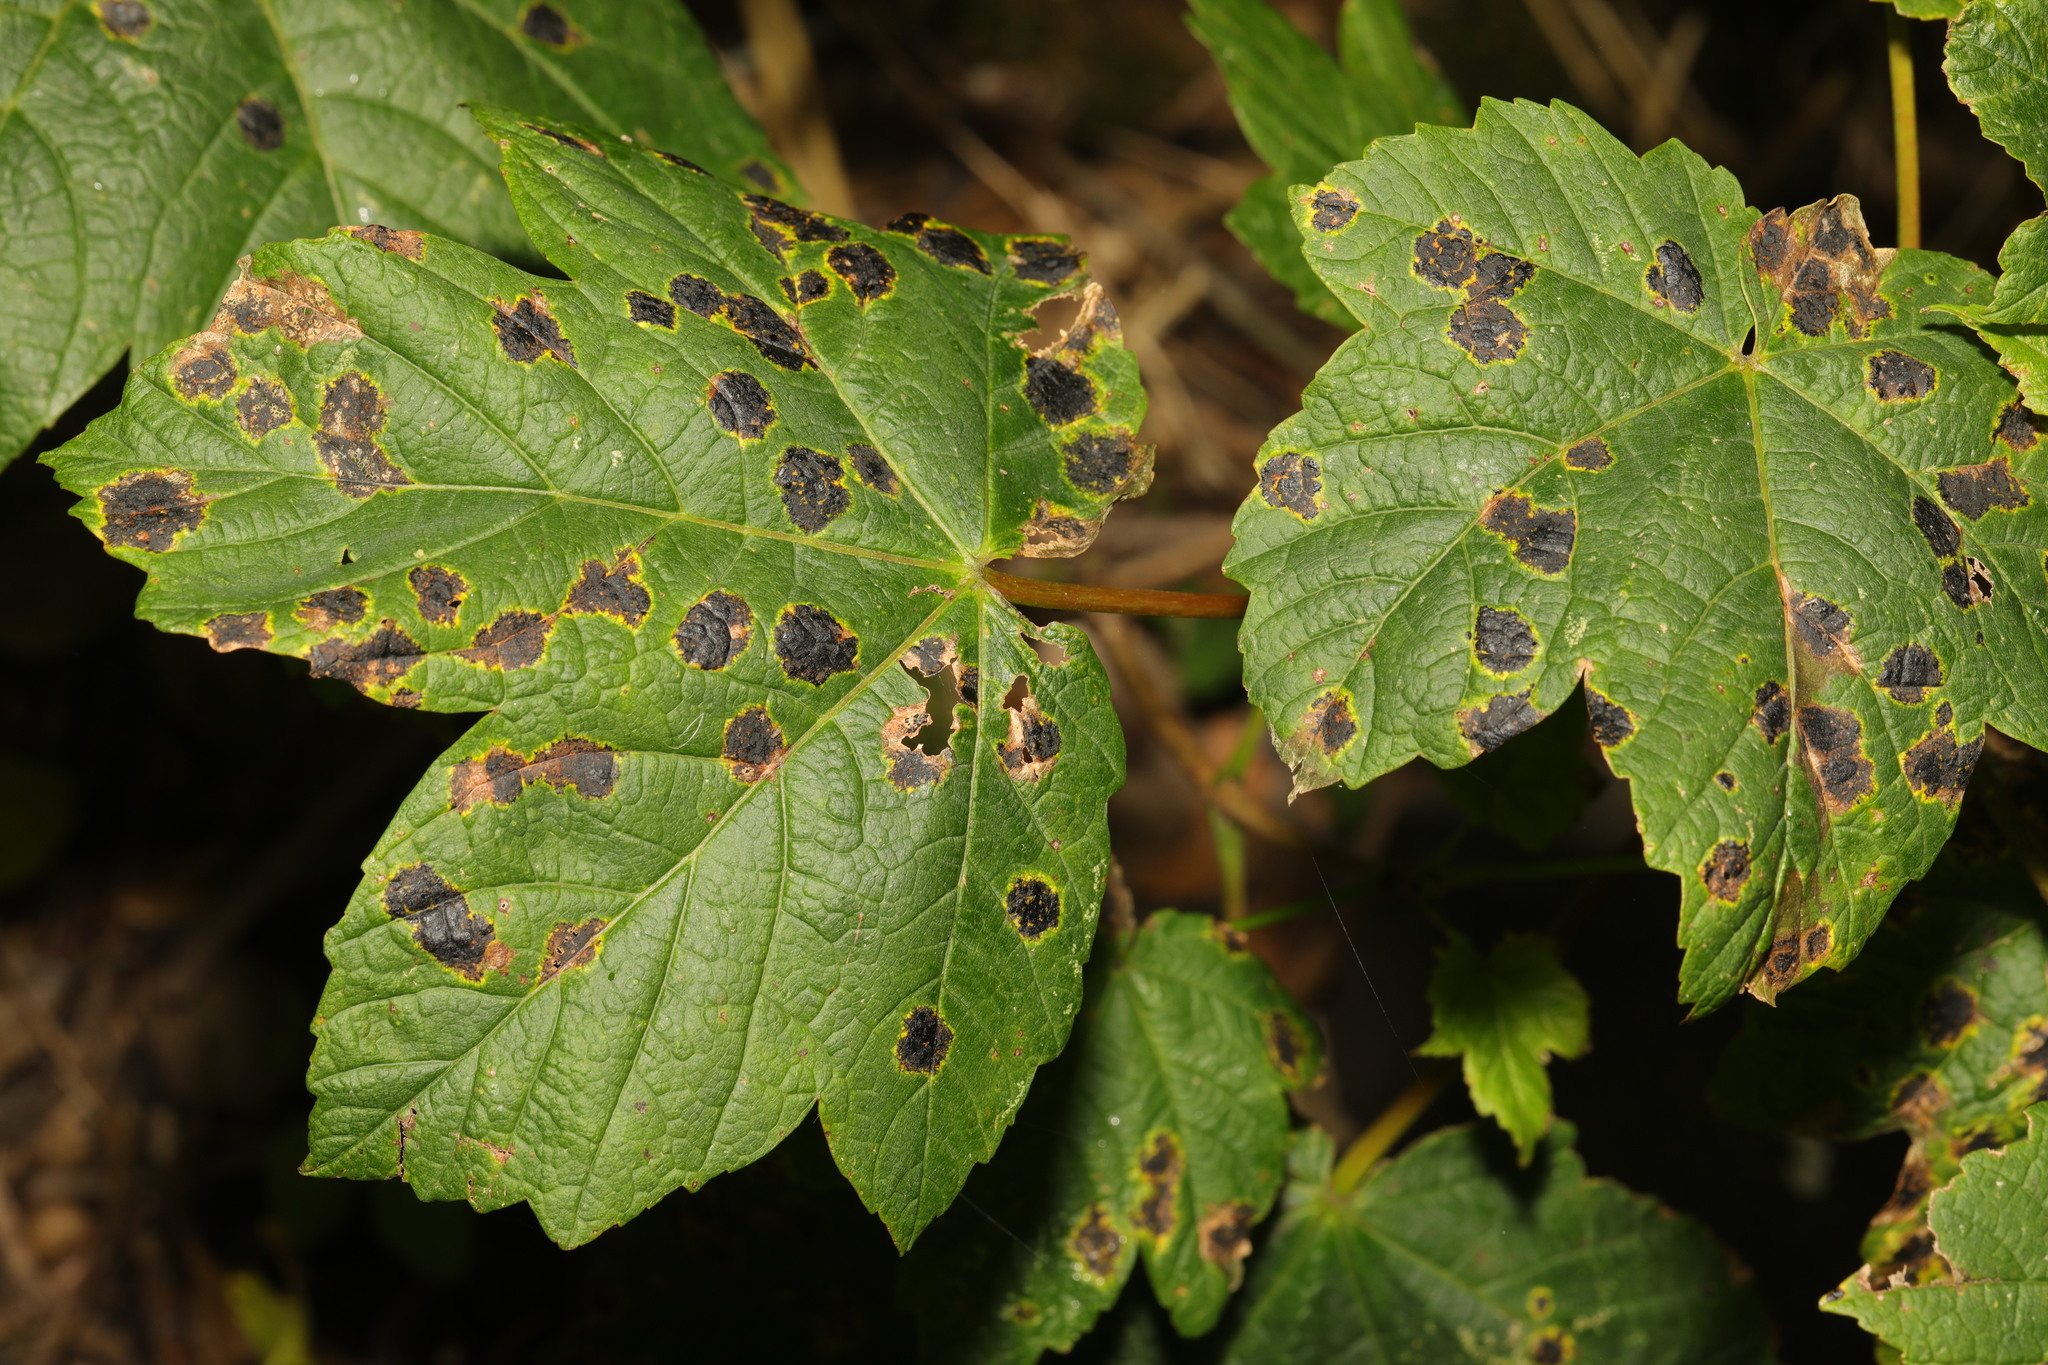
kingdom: Plantae
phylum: Tracheophyta
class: Magnoliopsida
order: Sapindales
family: Sapindaceae
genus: Acer
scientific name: Acer pseudoplatanus
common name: Sycamore
